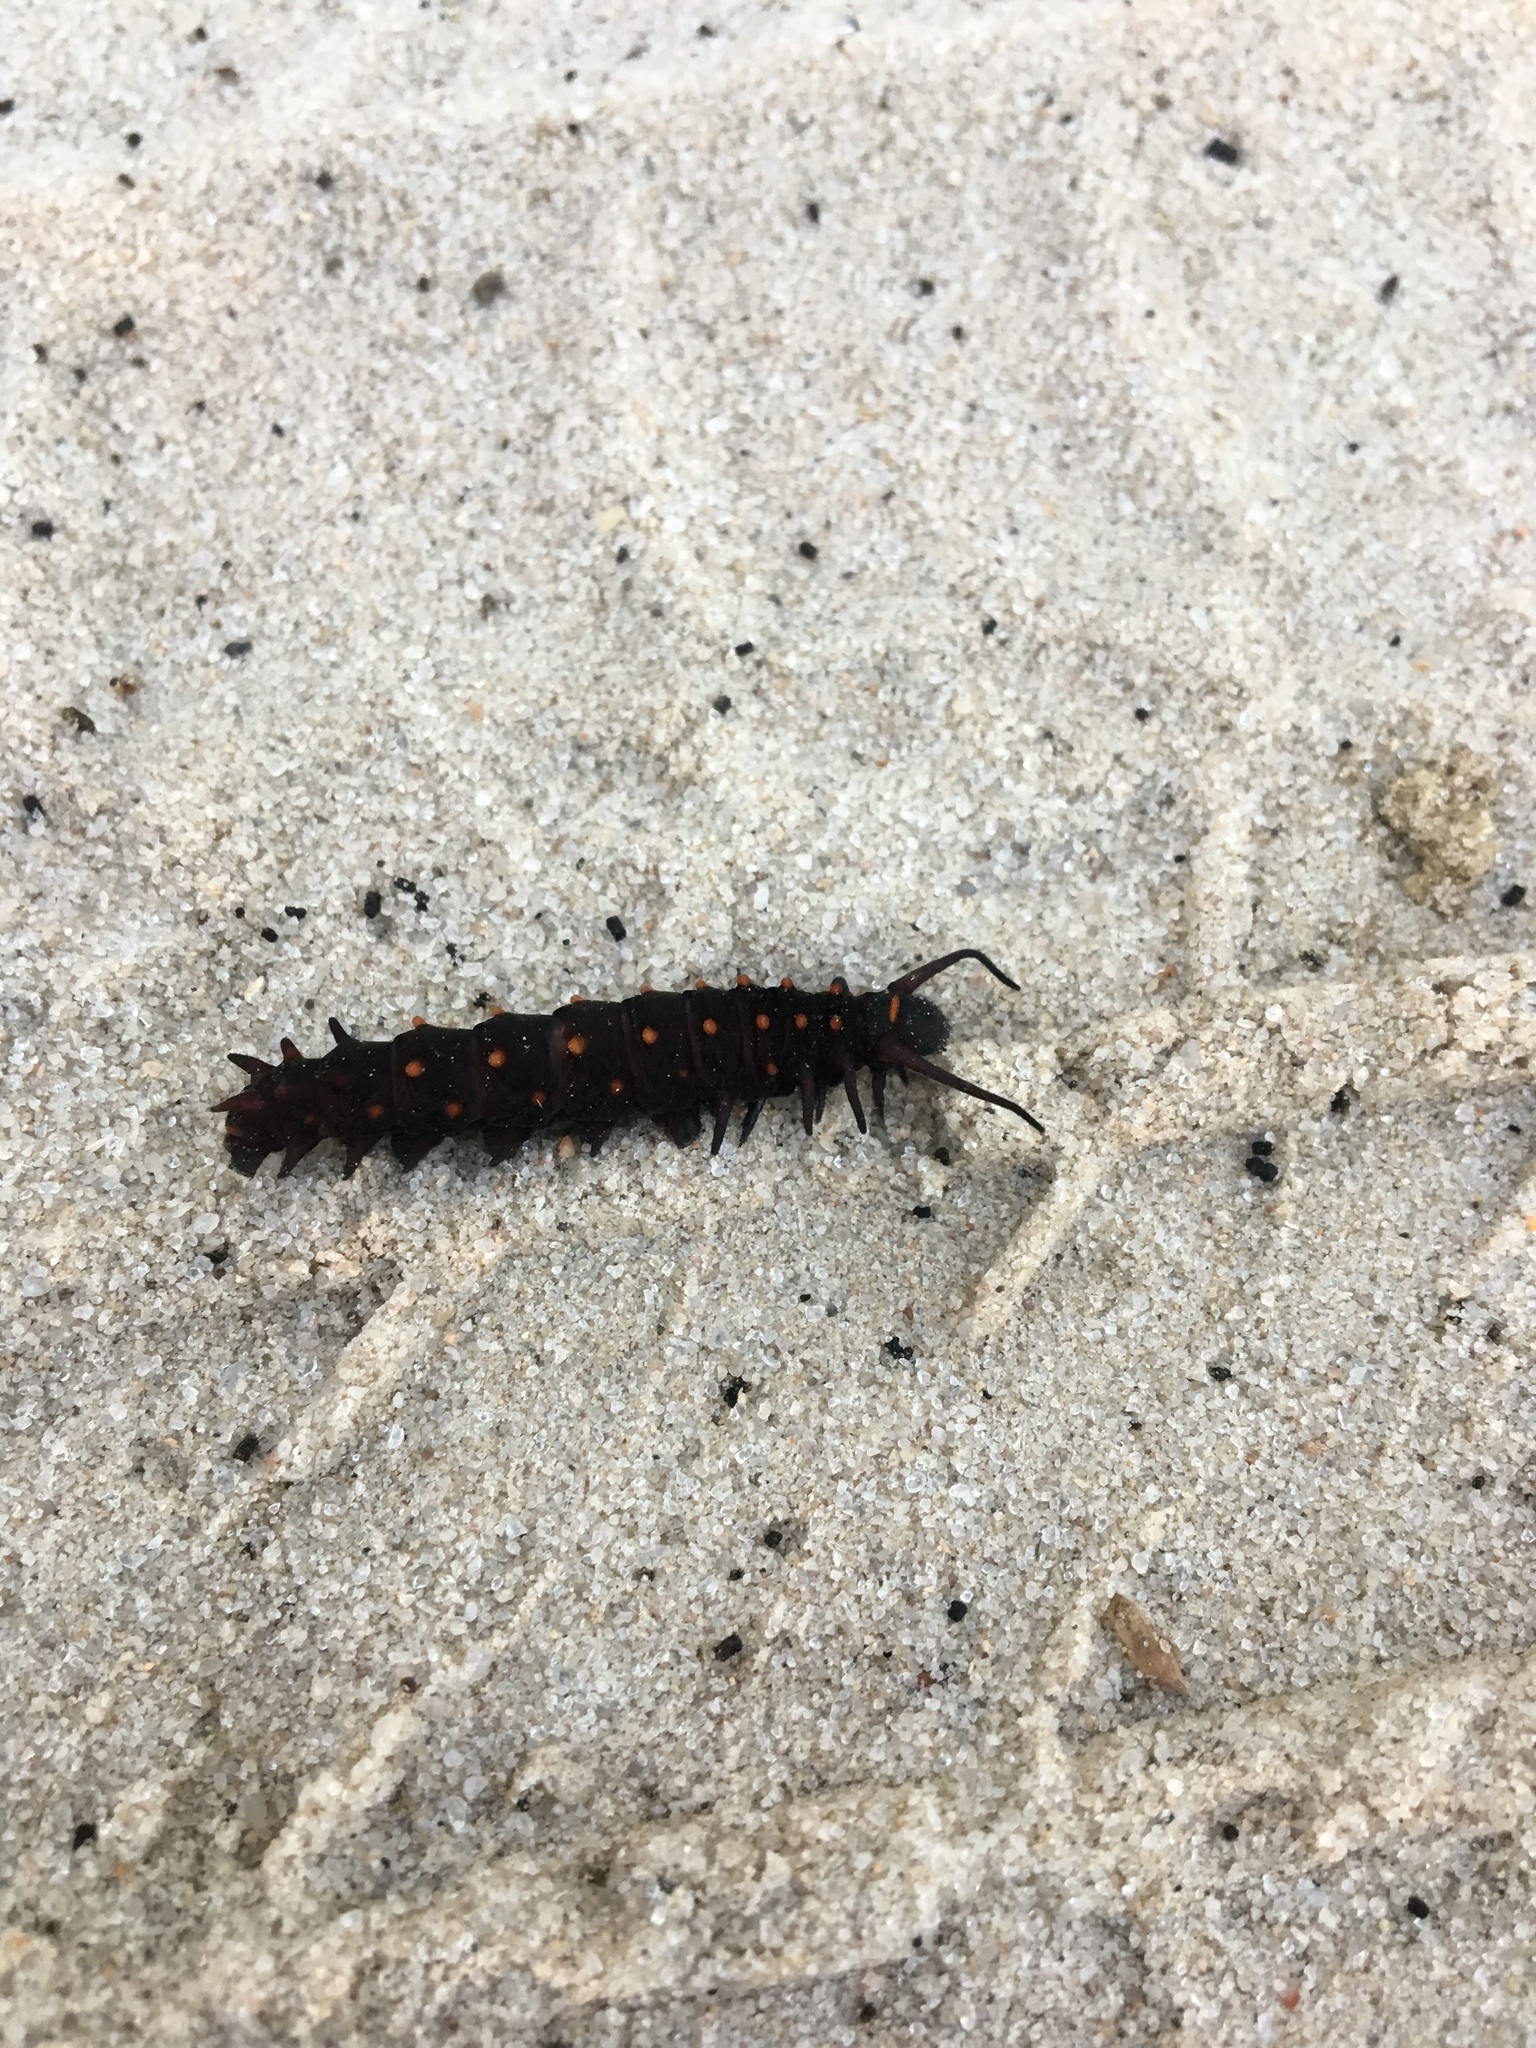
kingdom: Animalia
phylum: Arthropoda
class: Insecta
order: Lepidoptera
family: Papilionidae
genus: Battus
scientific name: Battus philenor
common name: Pipevine swallowtail
